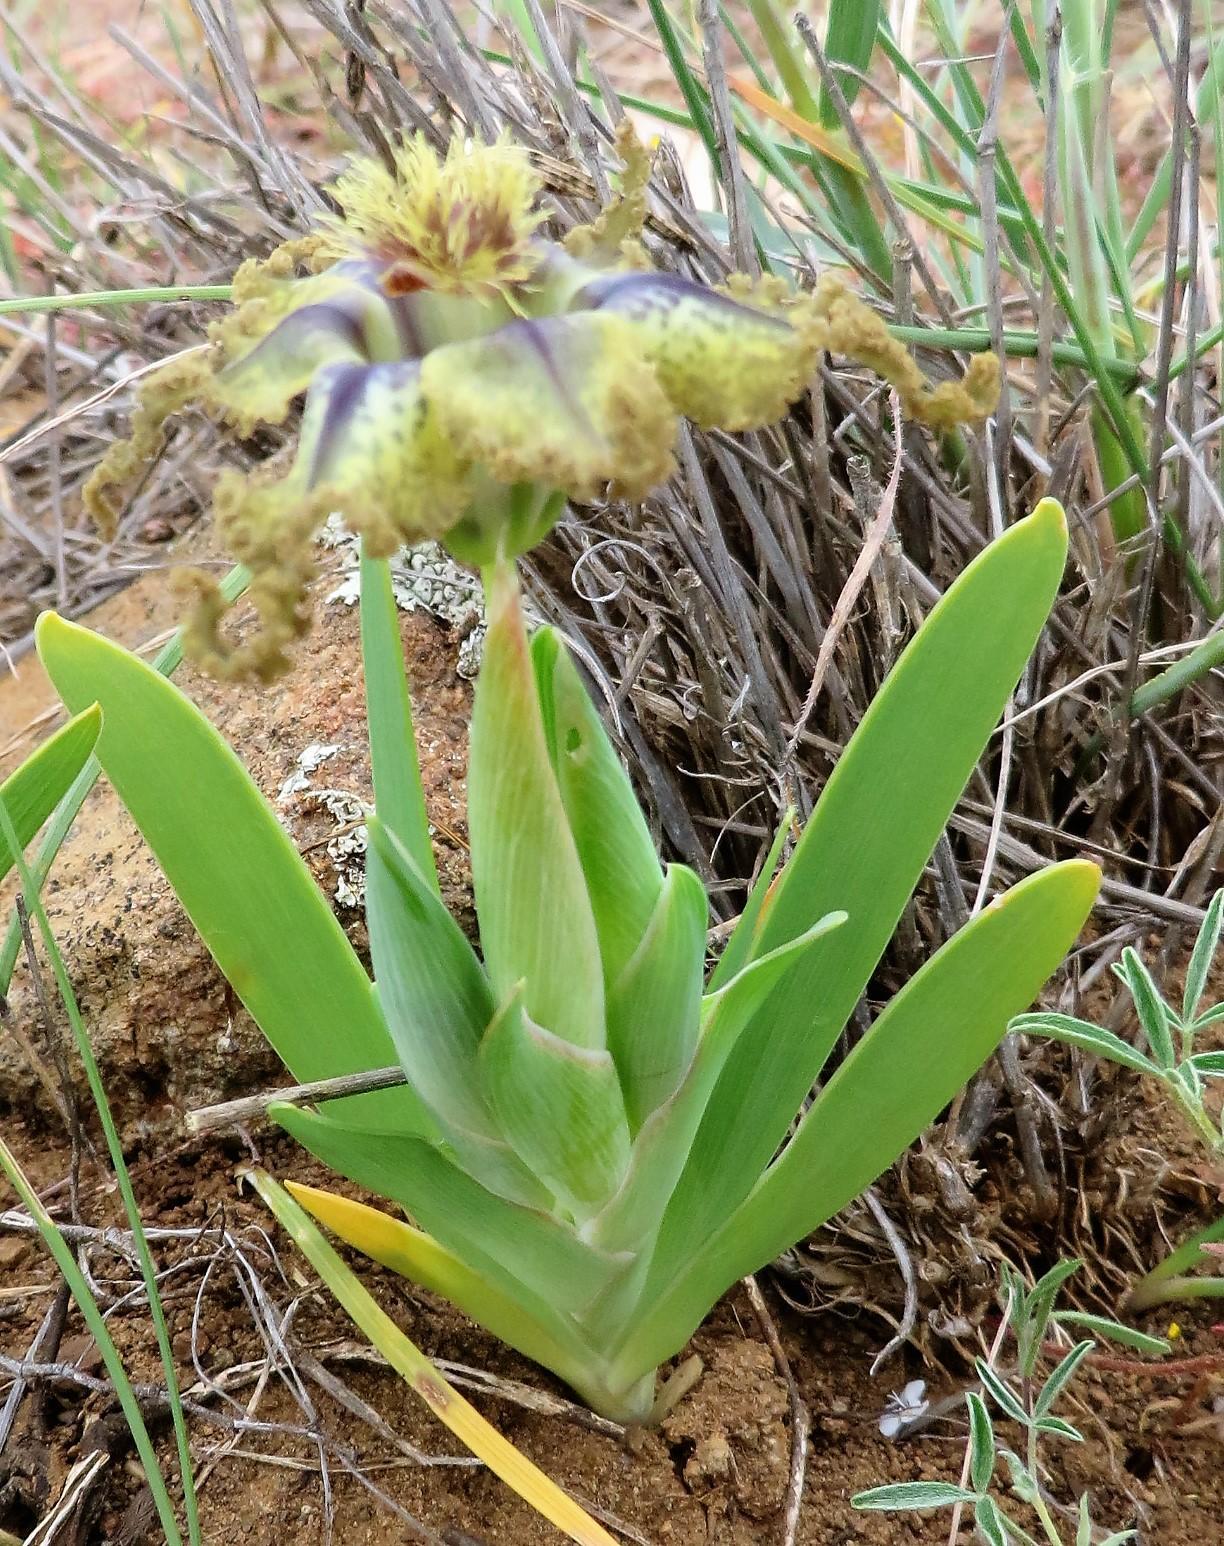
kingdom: Plantae
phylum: Tracheophyta
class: Liliopsida
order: Asparagales
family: Iridaceae
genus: Ferraria
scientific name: Ferraria variabilis
